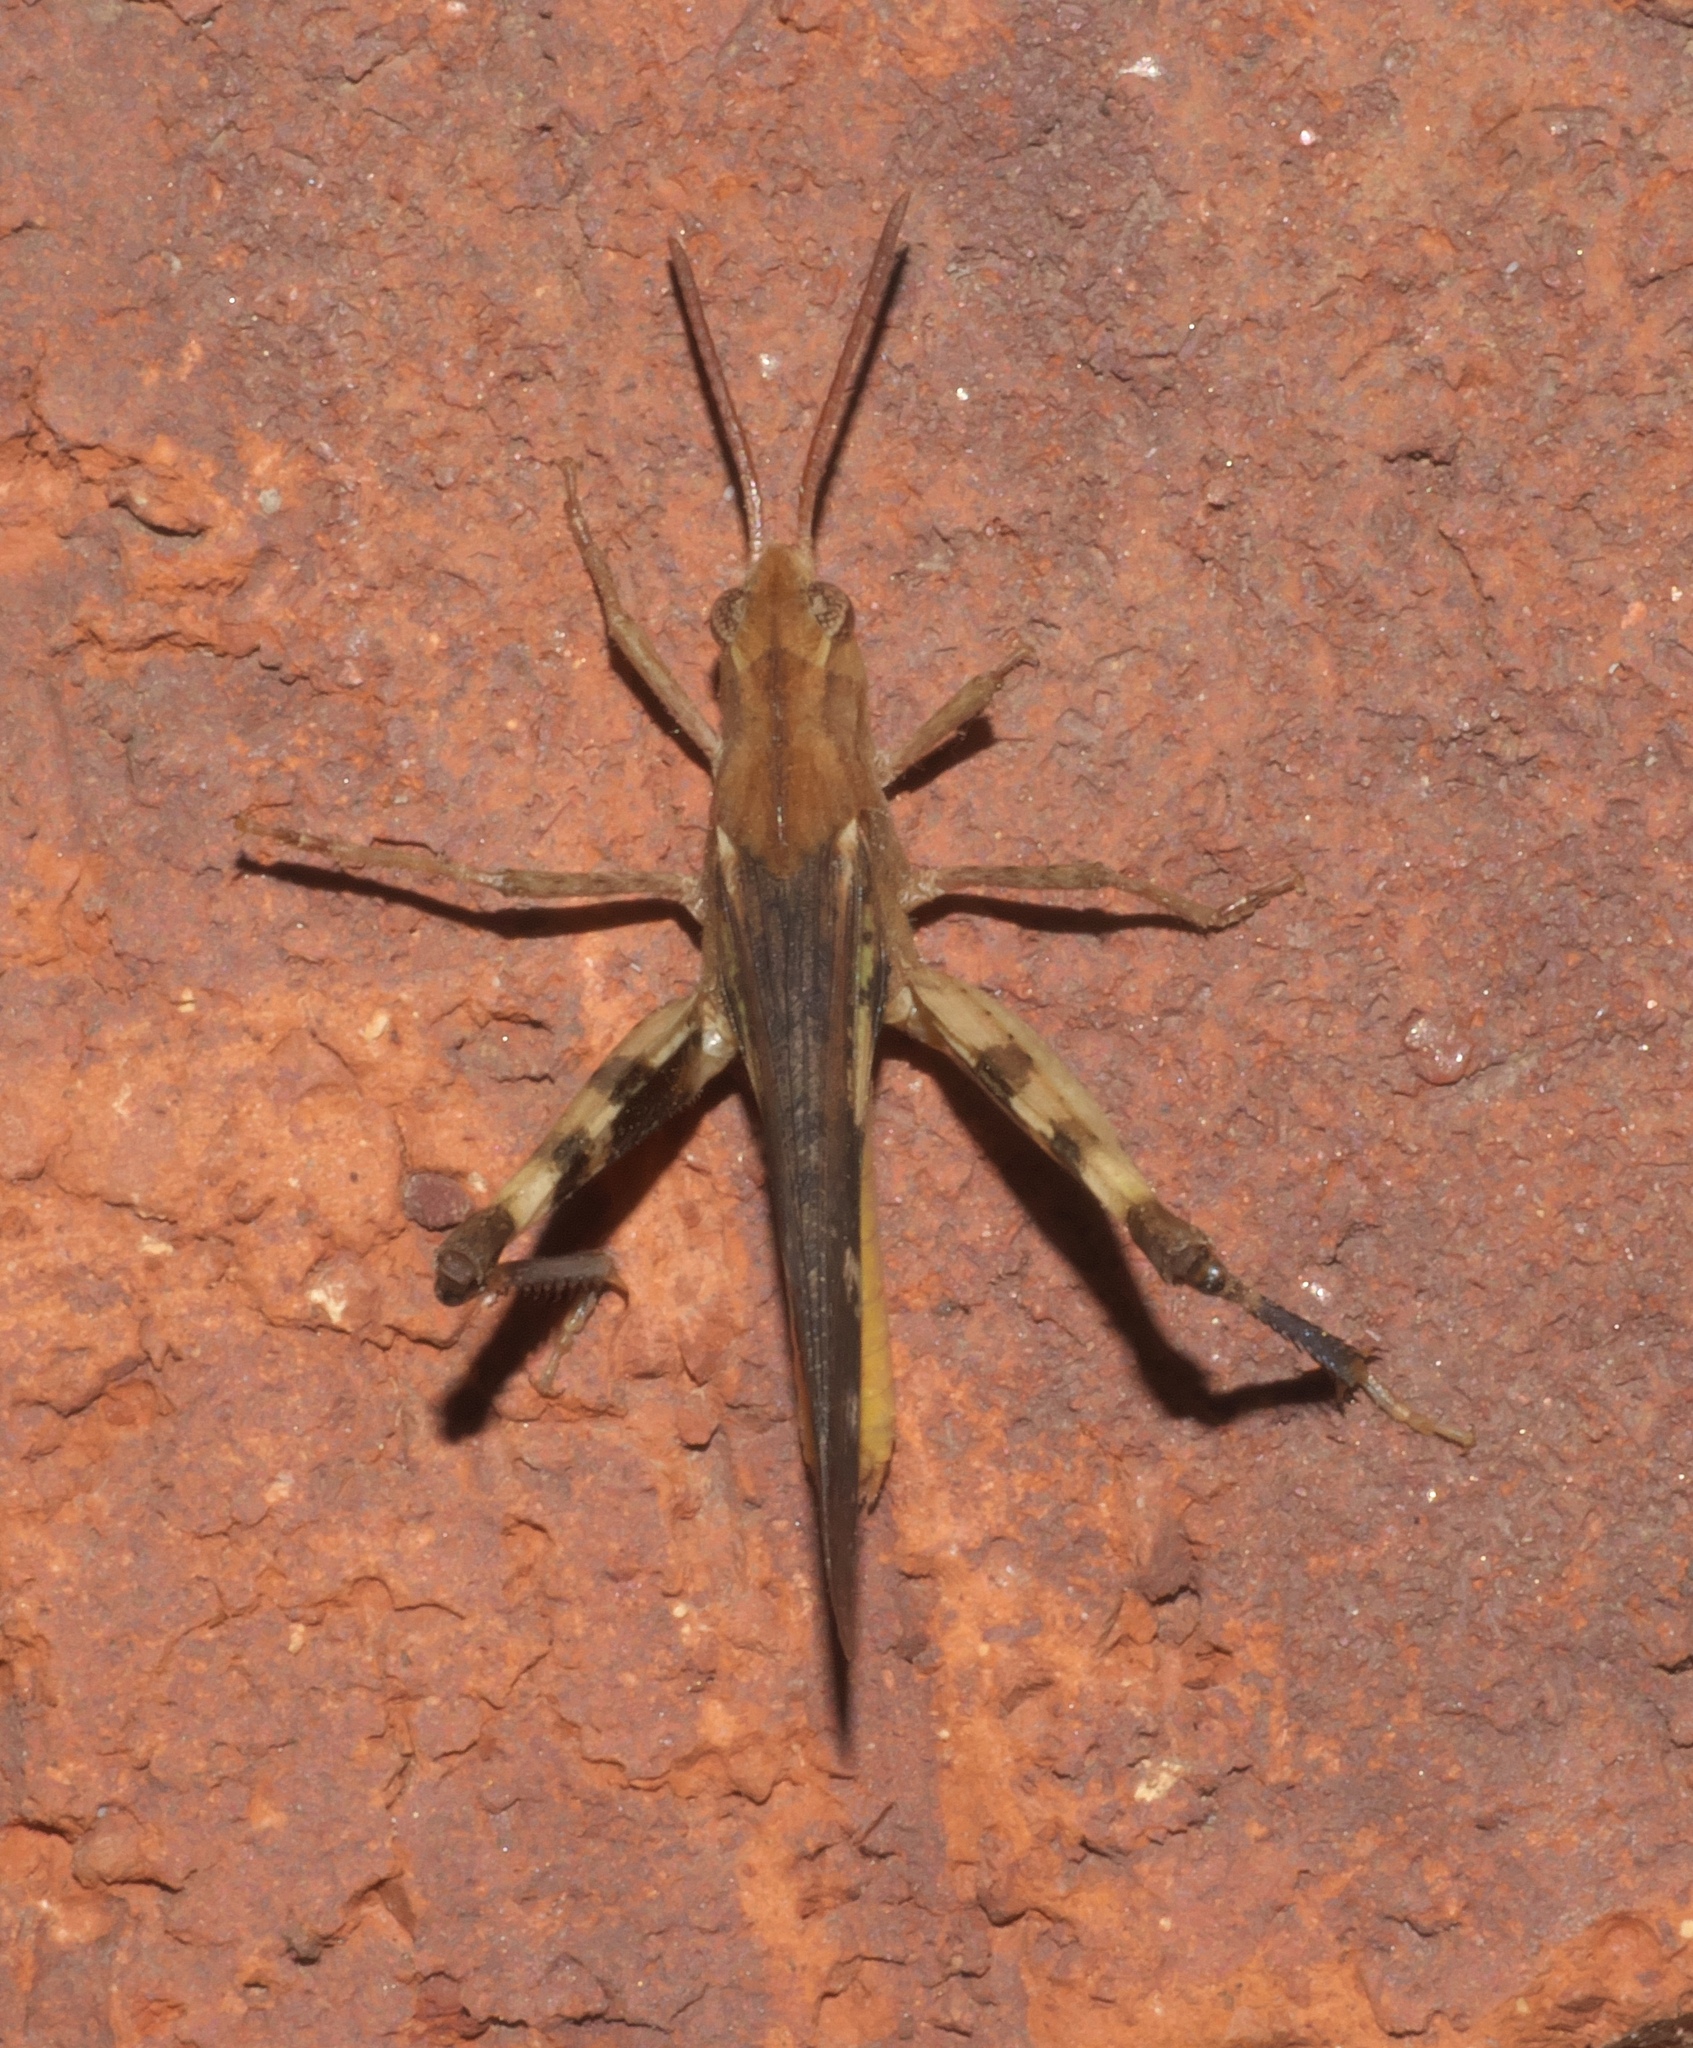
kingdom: Animalia
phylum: Arthropoda
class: Insecta
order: Orthoptera
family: Acrididae
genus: Chortophaga
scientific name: Chortophaga viridifasciata
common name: Green-striped grasshopper
